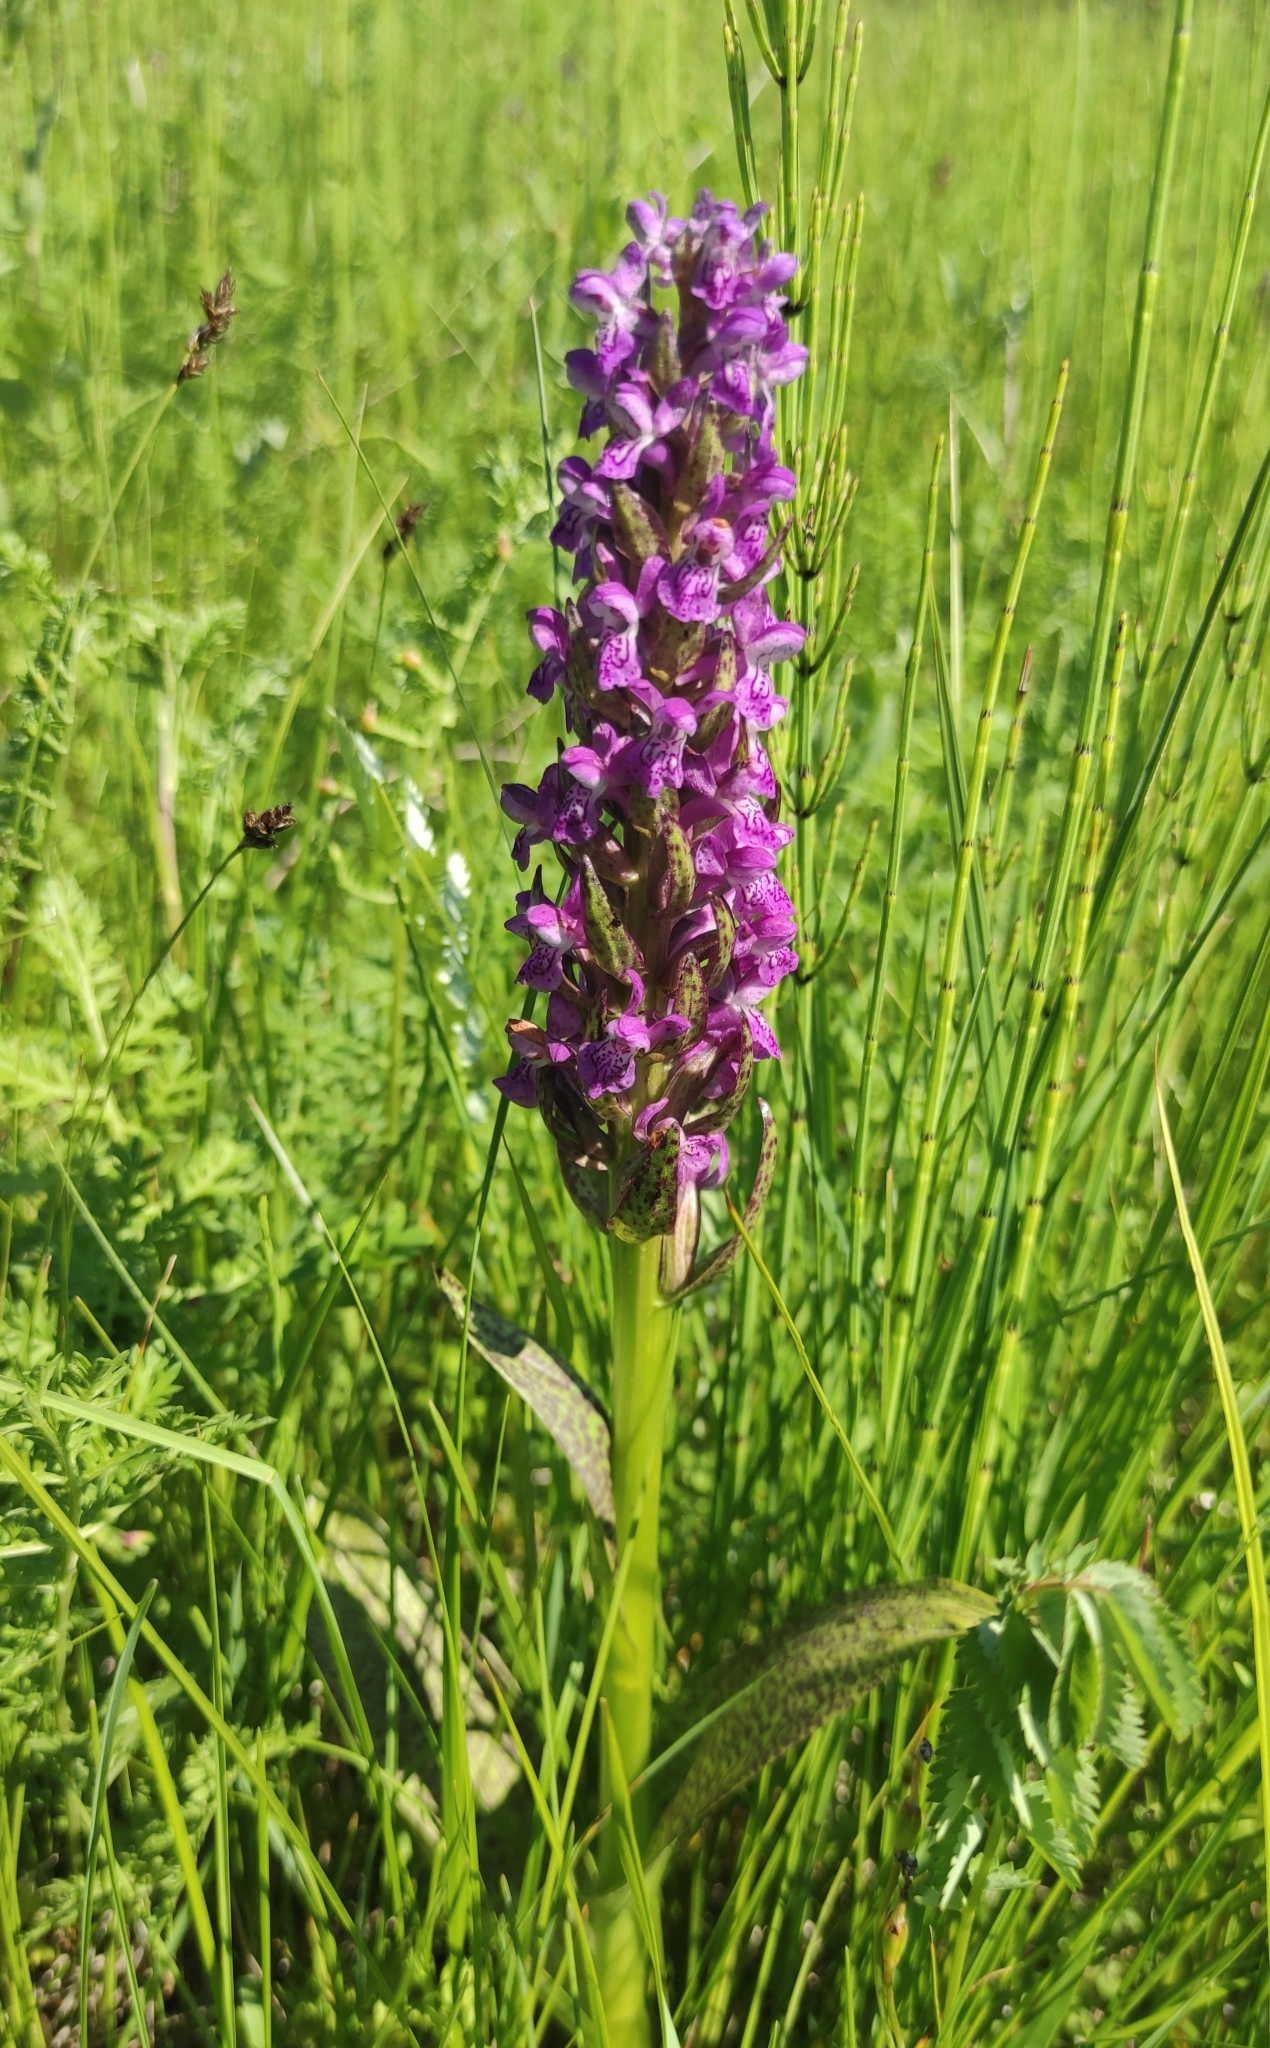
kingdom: Plantae
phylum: Tracheophyta
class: Liliopsida
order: Asparagales
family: Orchidaceae
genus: Dactylorhiza
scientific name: Dactylorhiza incarnata
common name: Early marsh-orchid
